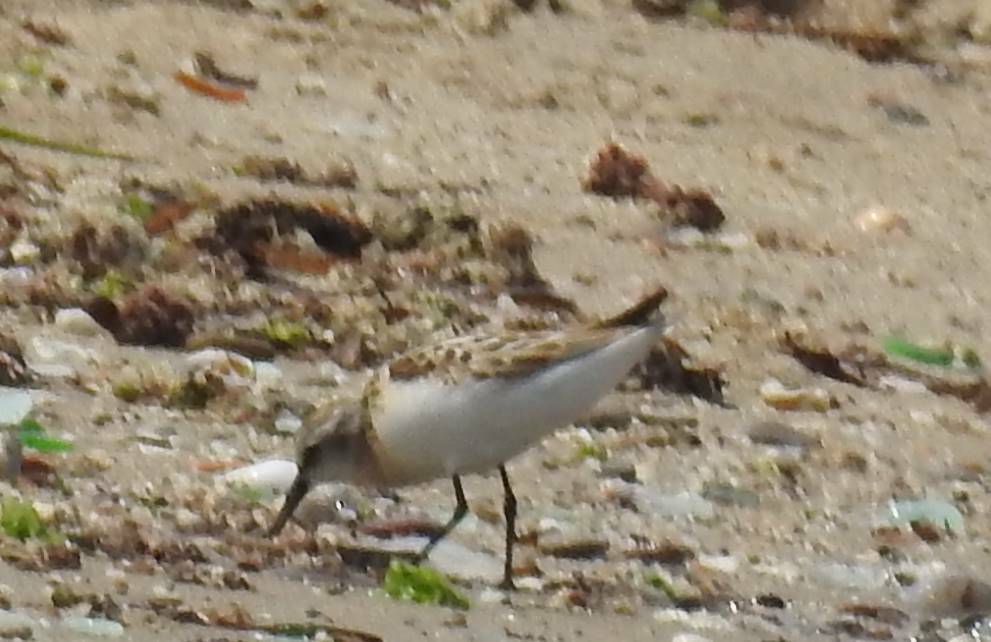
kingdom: Animalia
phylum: Chordata
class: Aves
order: Charadriiformes
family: Scolopacidae
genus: Calidris
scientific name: Calidris minuta
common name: Little stint
